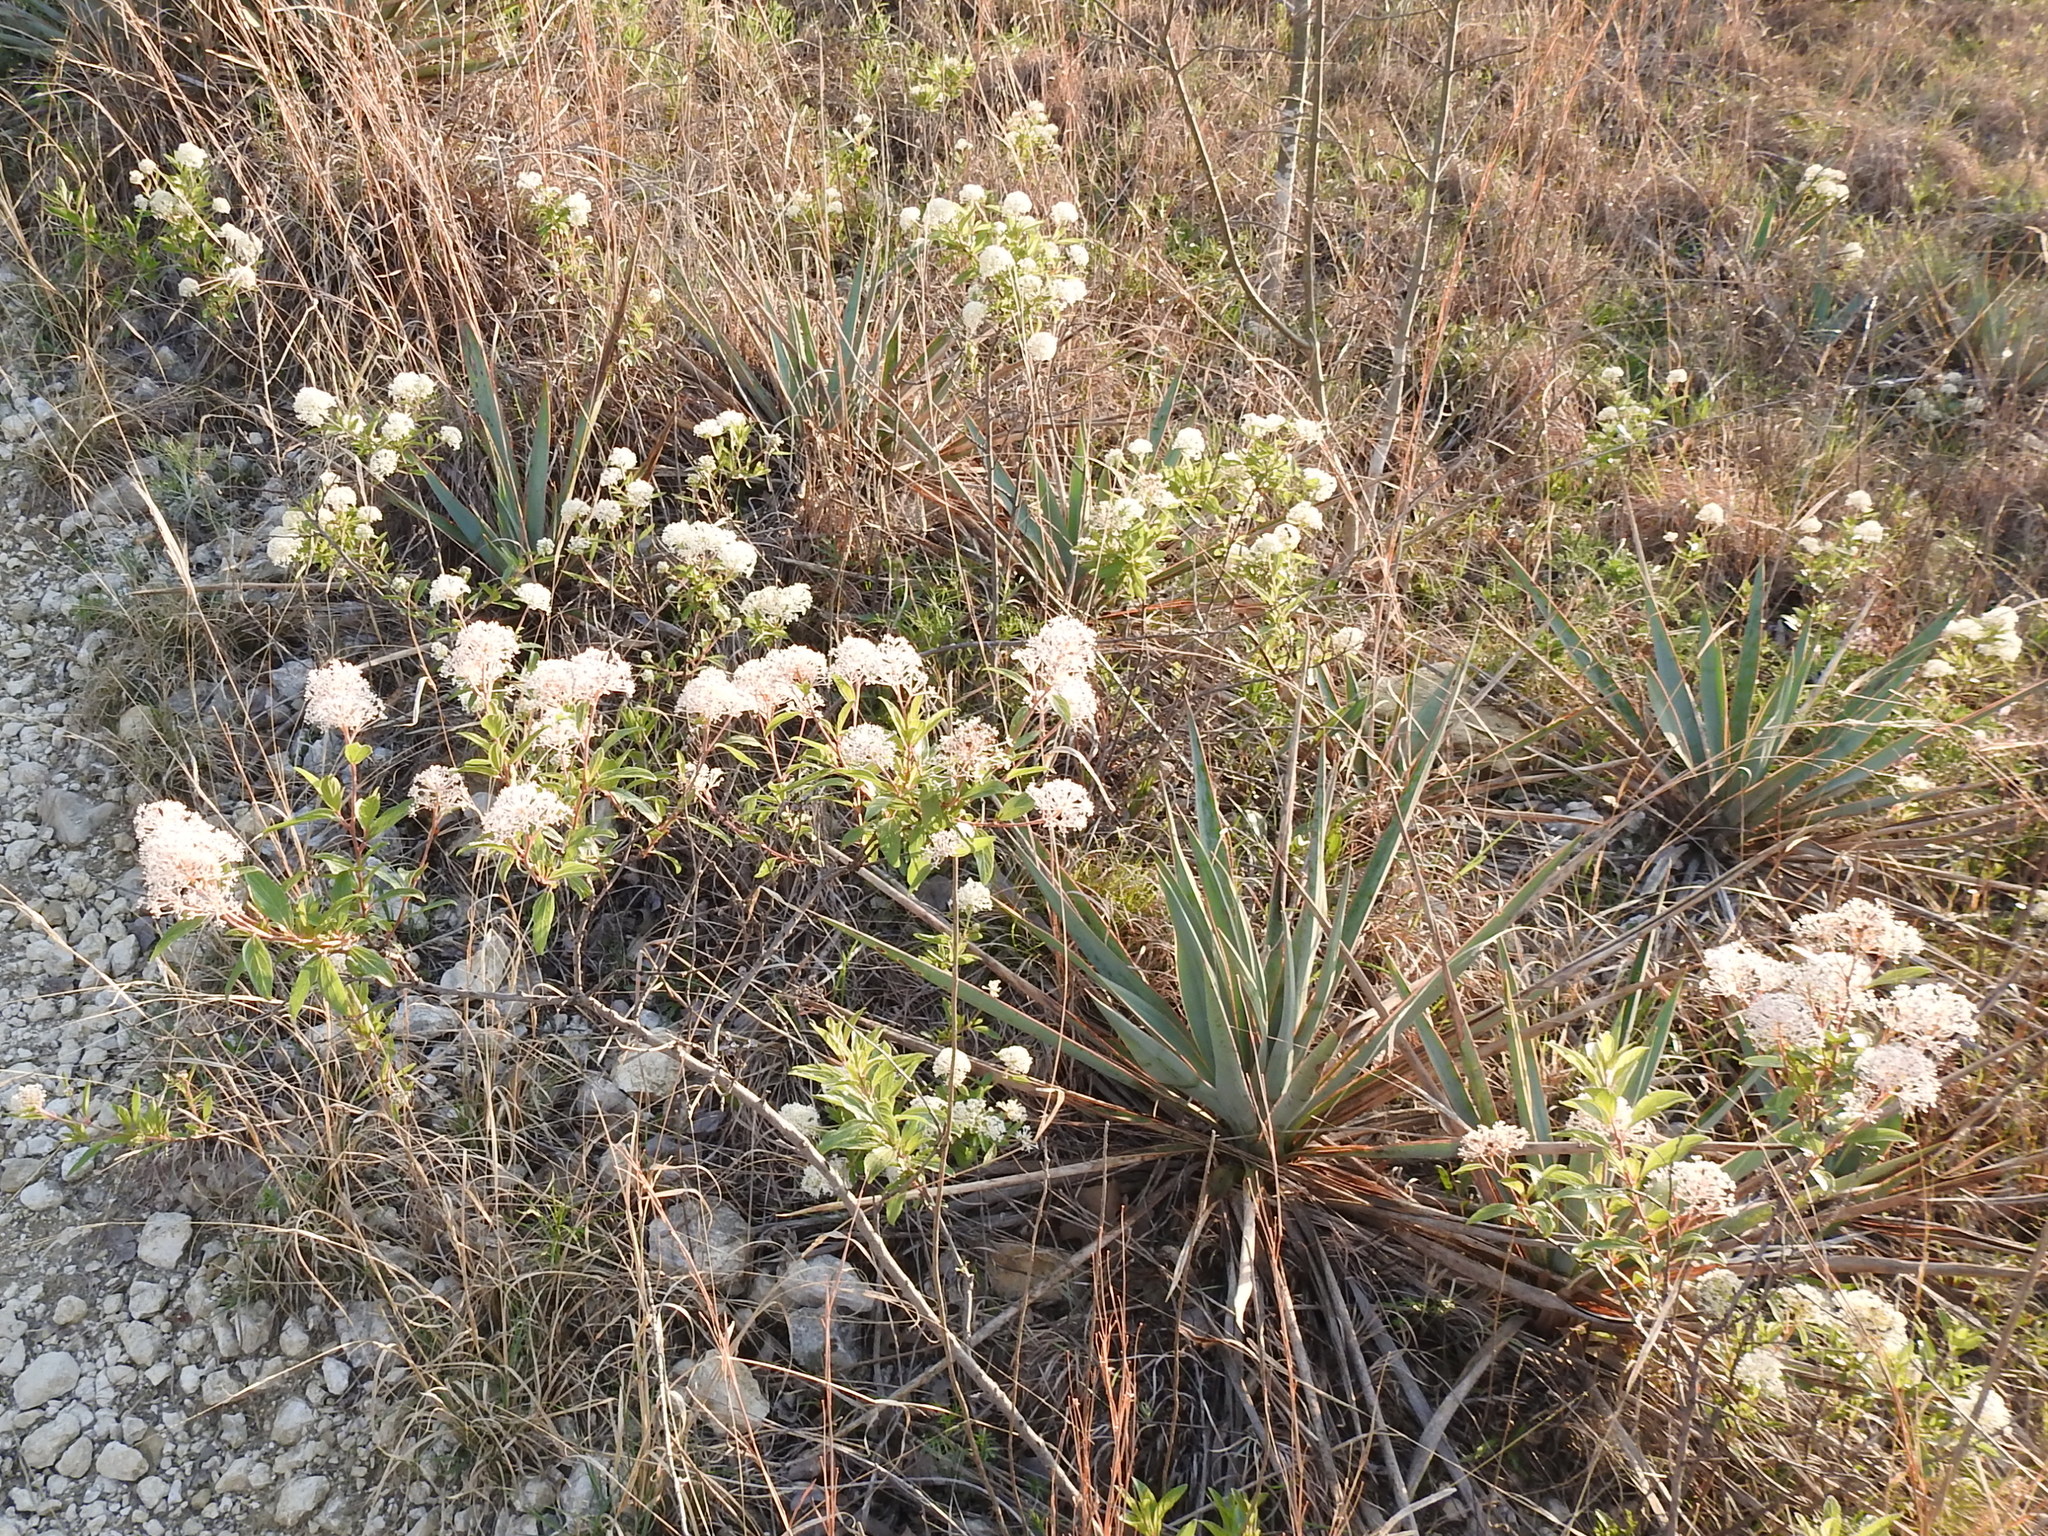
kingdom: Plantae
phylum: Tracheophyta
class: Magnoliopsida
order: Rosales
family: Rhamnaceae
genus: Ceanothus
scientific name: Ceanothus herbaceus
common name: Inland ceanothus
